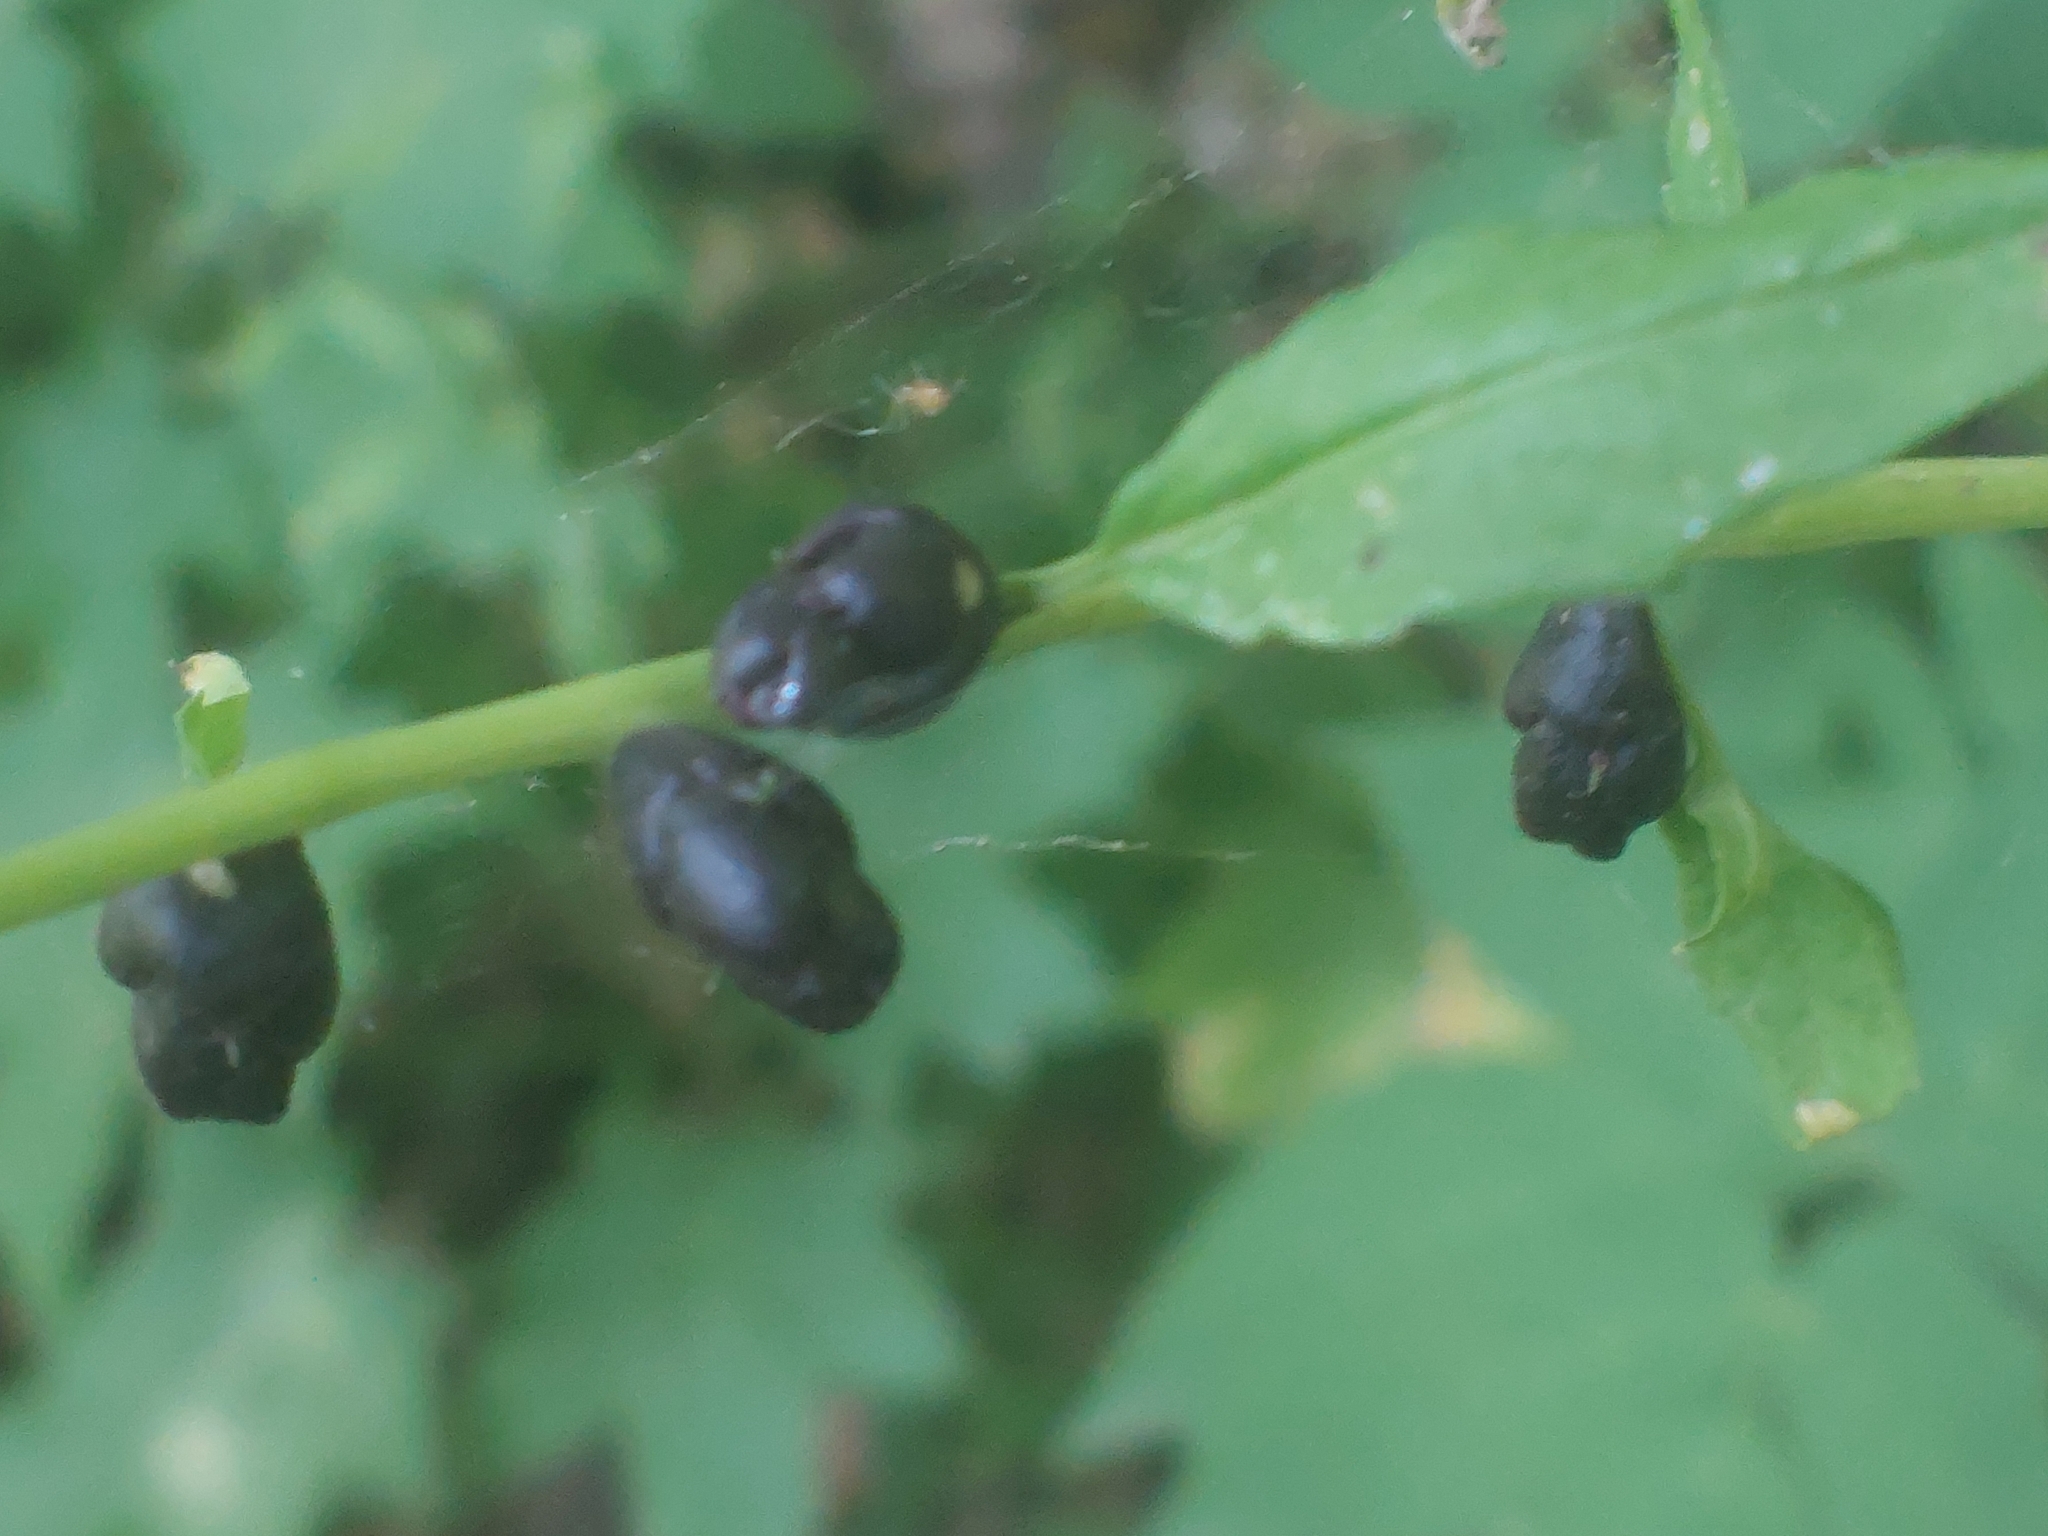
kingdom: Plantae
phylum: Tracheophyta
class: Magnoliopsida
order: Brassicales
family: Brassicaceae
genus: Cardamine
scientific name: Cardamine bulbifera
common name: Coralroot bittercress
